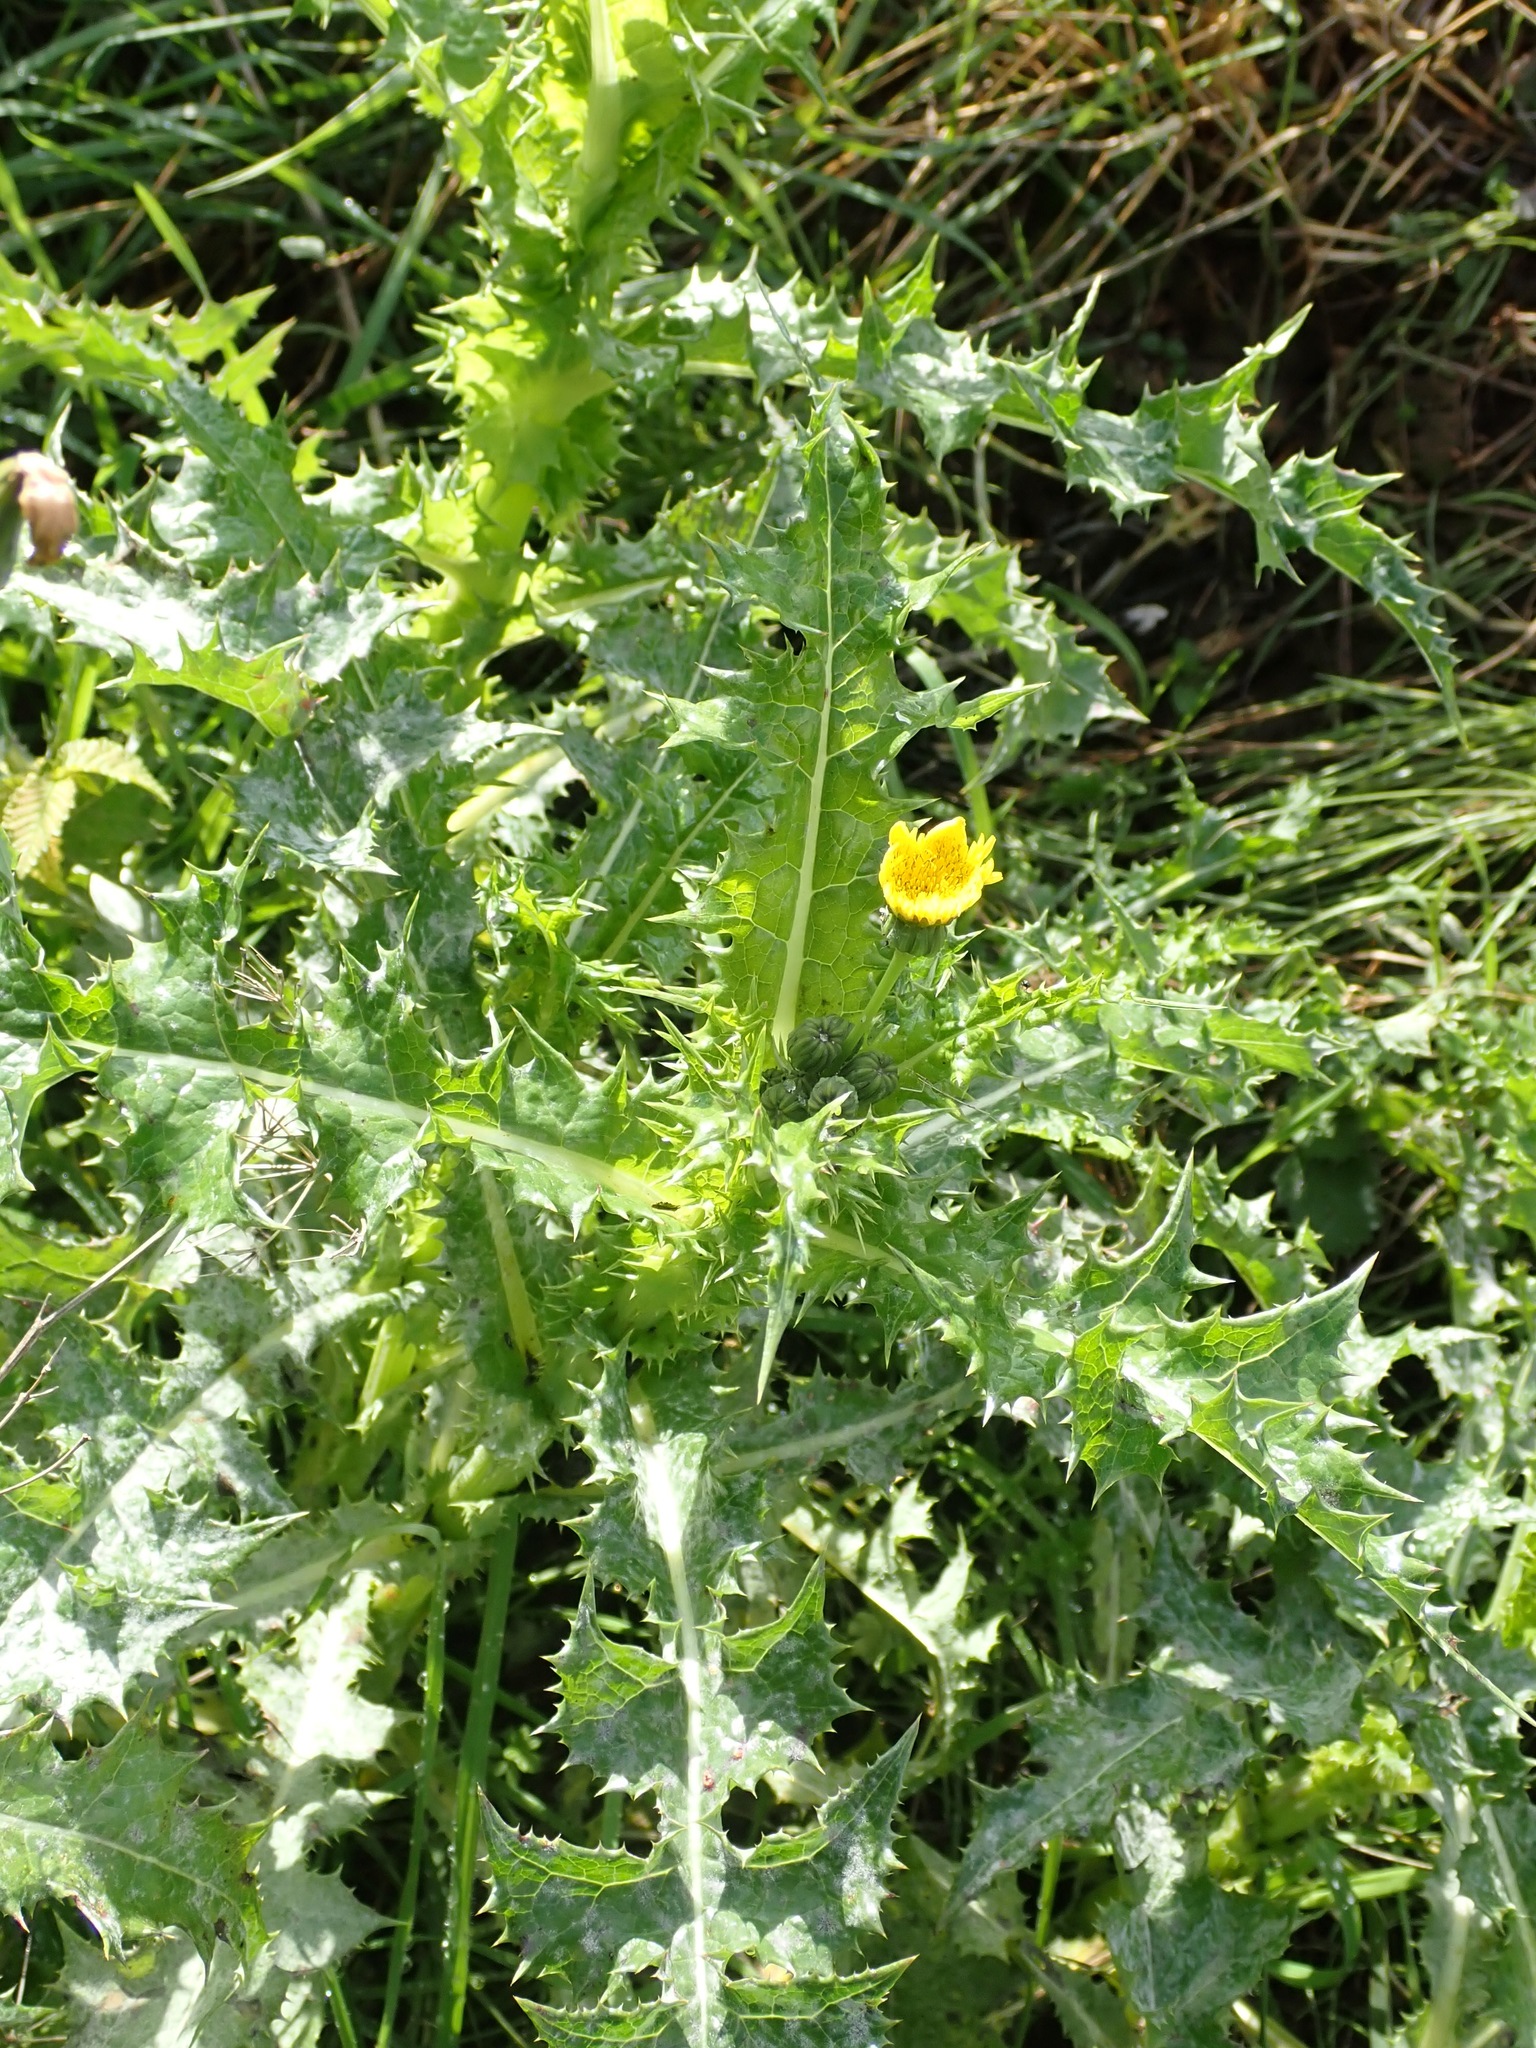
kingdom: Plantae
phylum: Tracheophyta
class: Magnoliopsida
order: Asterales
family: Asteraceae
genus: Sonchus
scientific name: Sonchus asper
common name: Prickly sow-thistle
